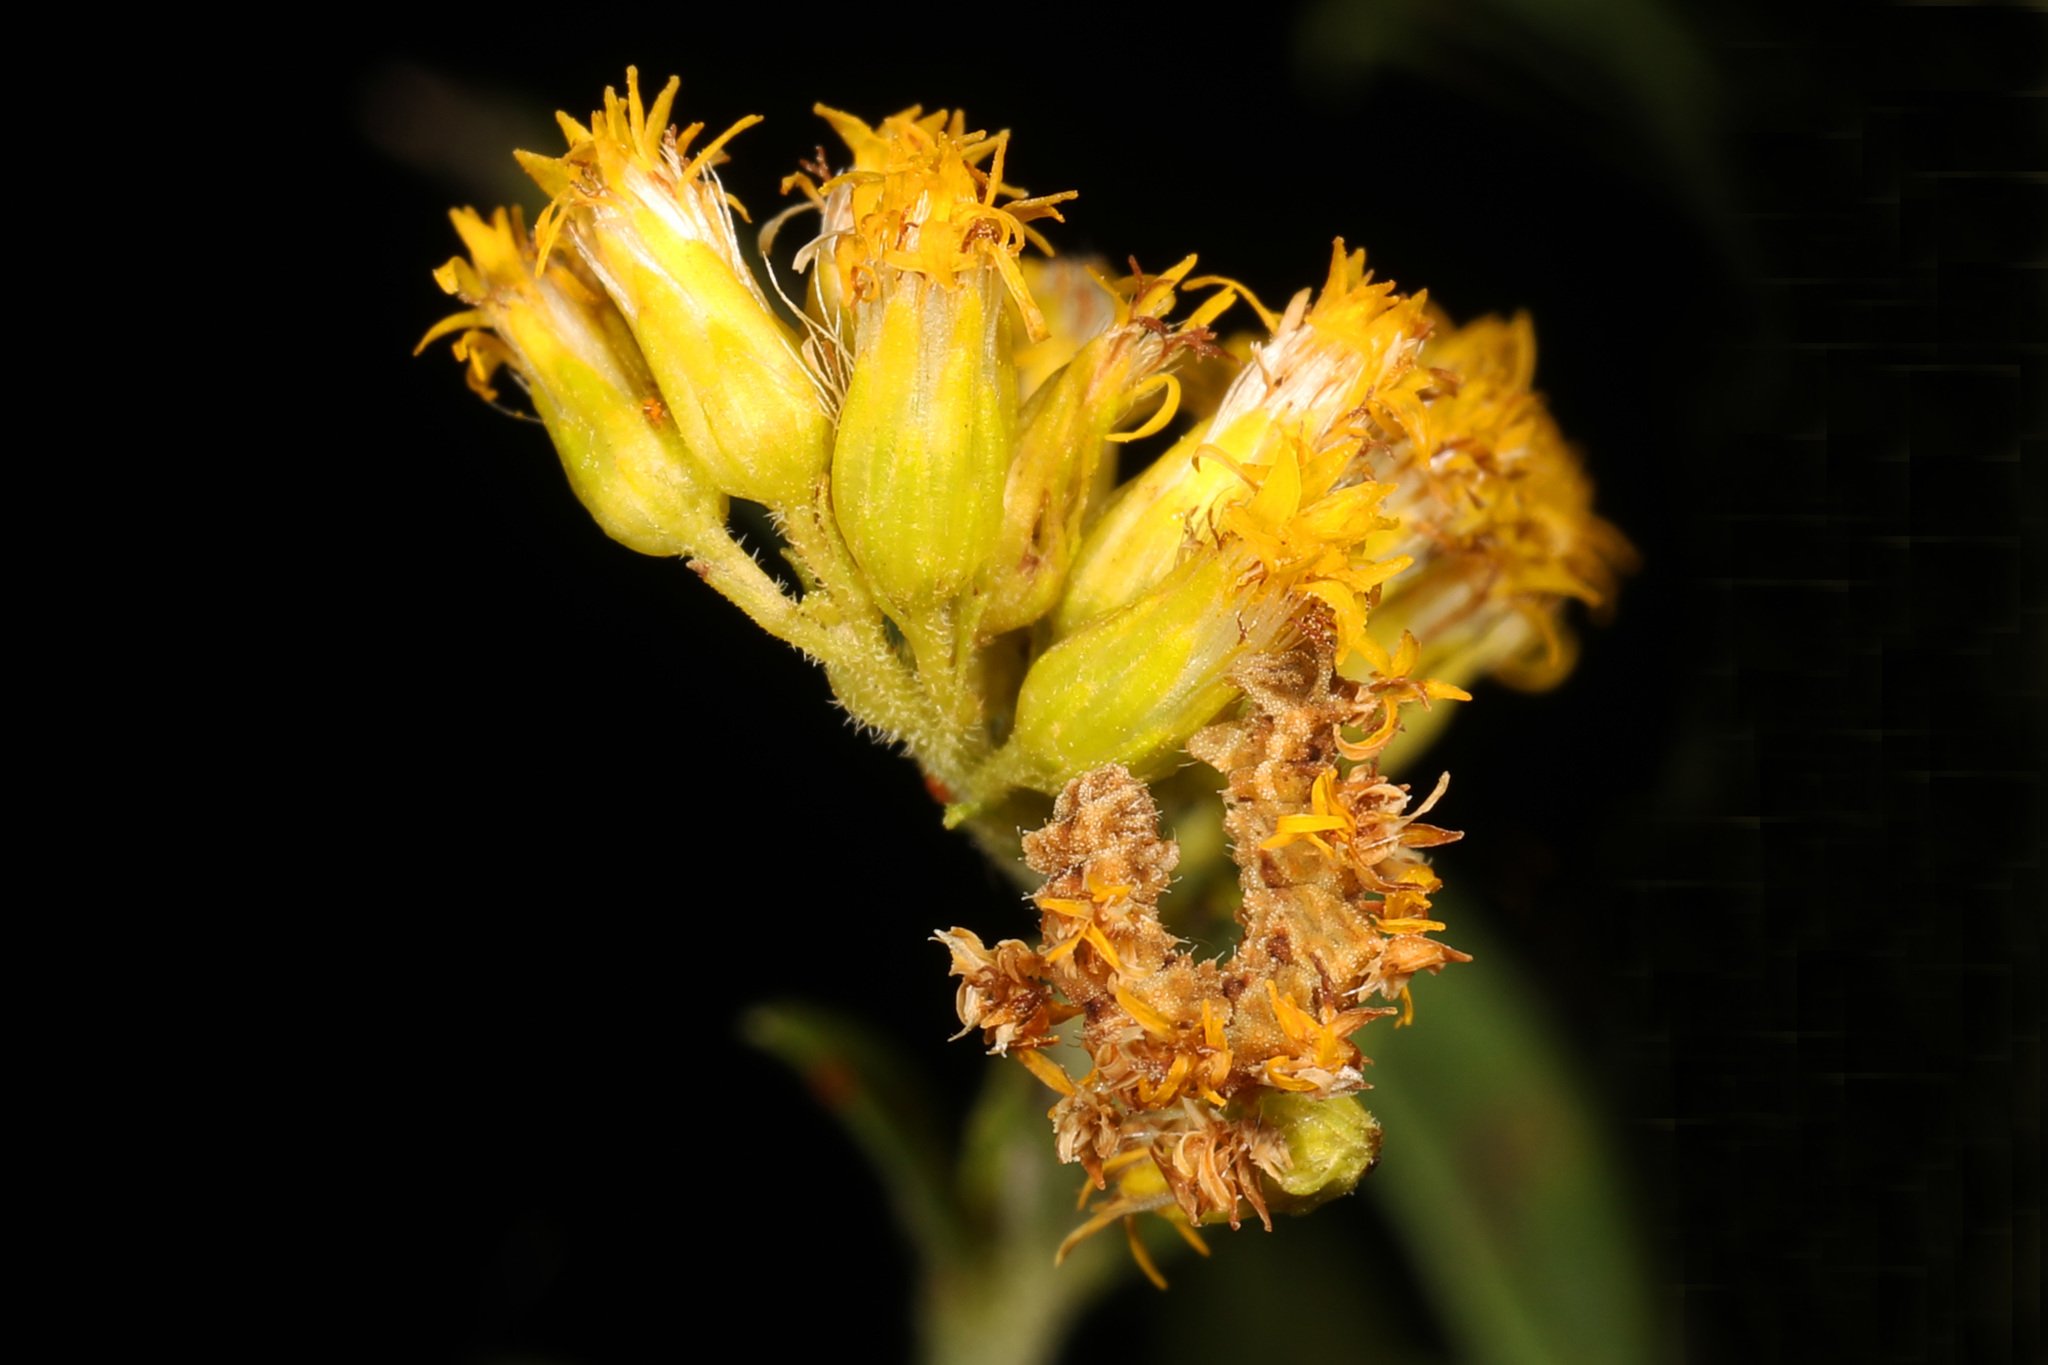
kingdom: Animalia
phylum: Arthropoda
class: Insecta
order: Lepidoptera
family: Geometridae
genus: Synchlora
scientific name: Synchlora aerata
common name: Wavy-lined emerald
